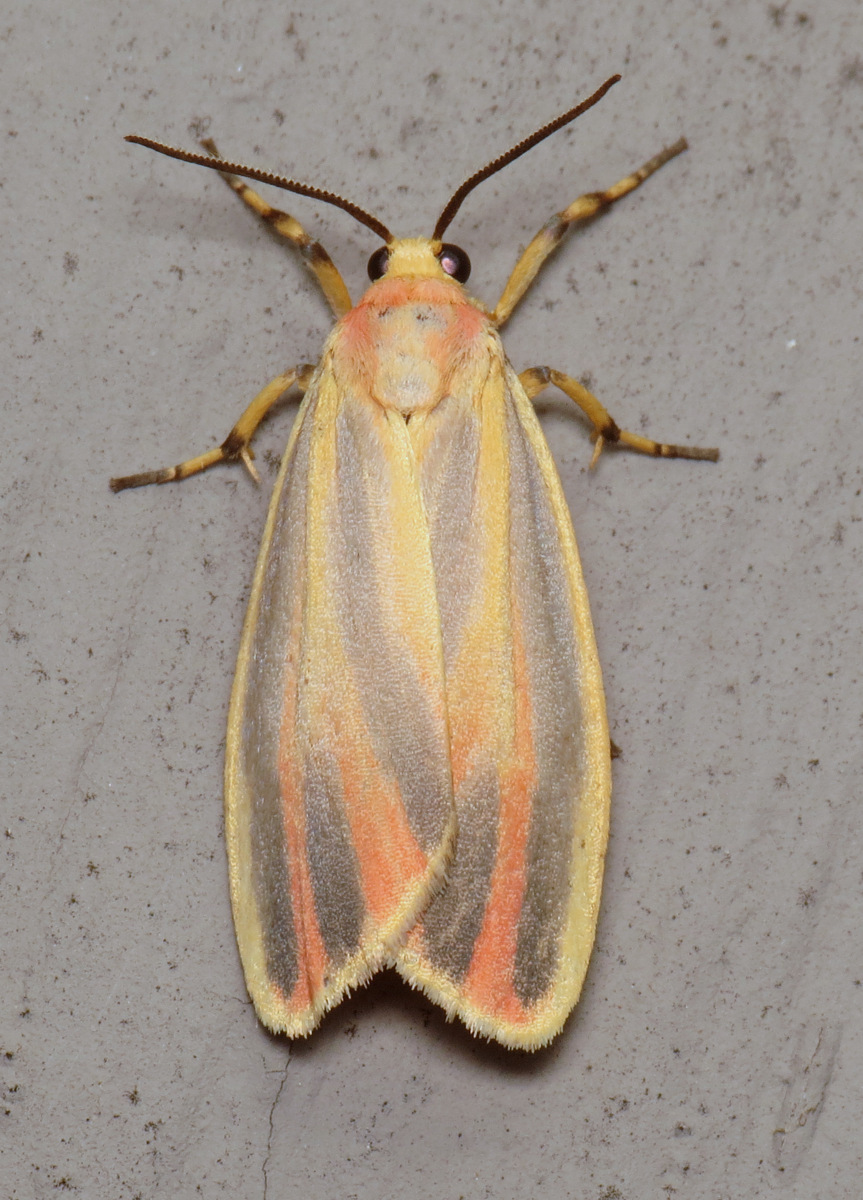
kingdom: Animalia
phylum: Arthropoda
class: Insecta
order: Lepidoptera
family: Erebidae
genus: Hypoprepia
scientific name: Hypoprepia fucosa
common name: Painted lichen moth
